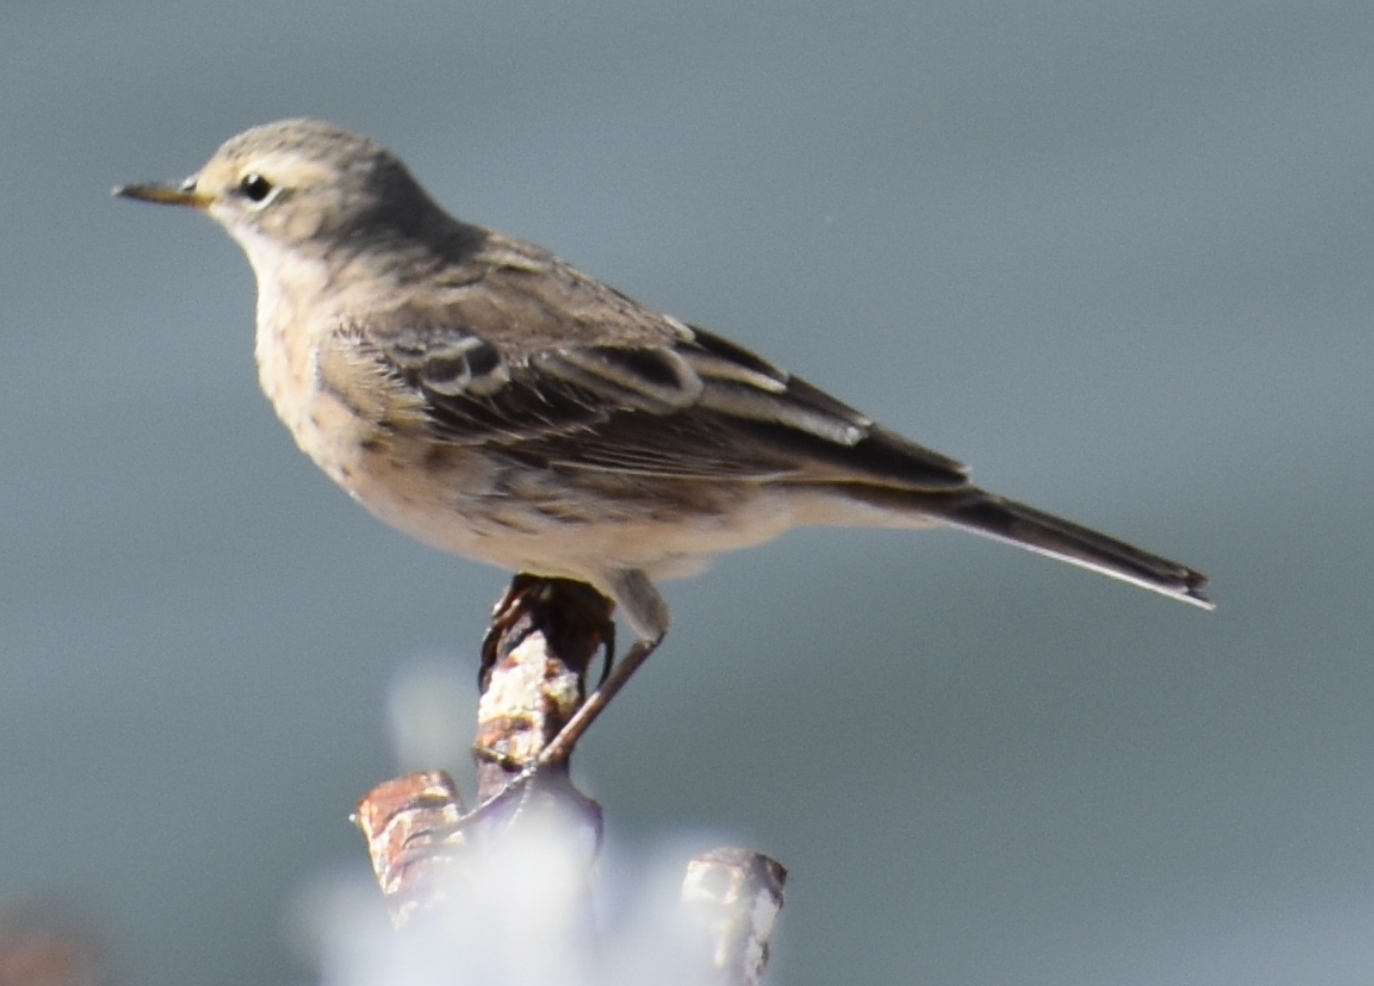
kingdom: Animalia
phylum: Chordata
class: Aves
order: Passeriformes
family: Motacillidae
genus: Anthus
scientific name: Anthus spinoletta
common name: Water pipit
